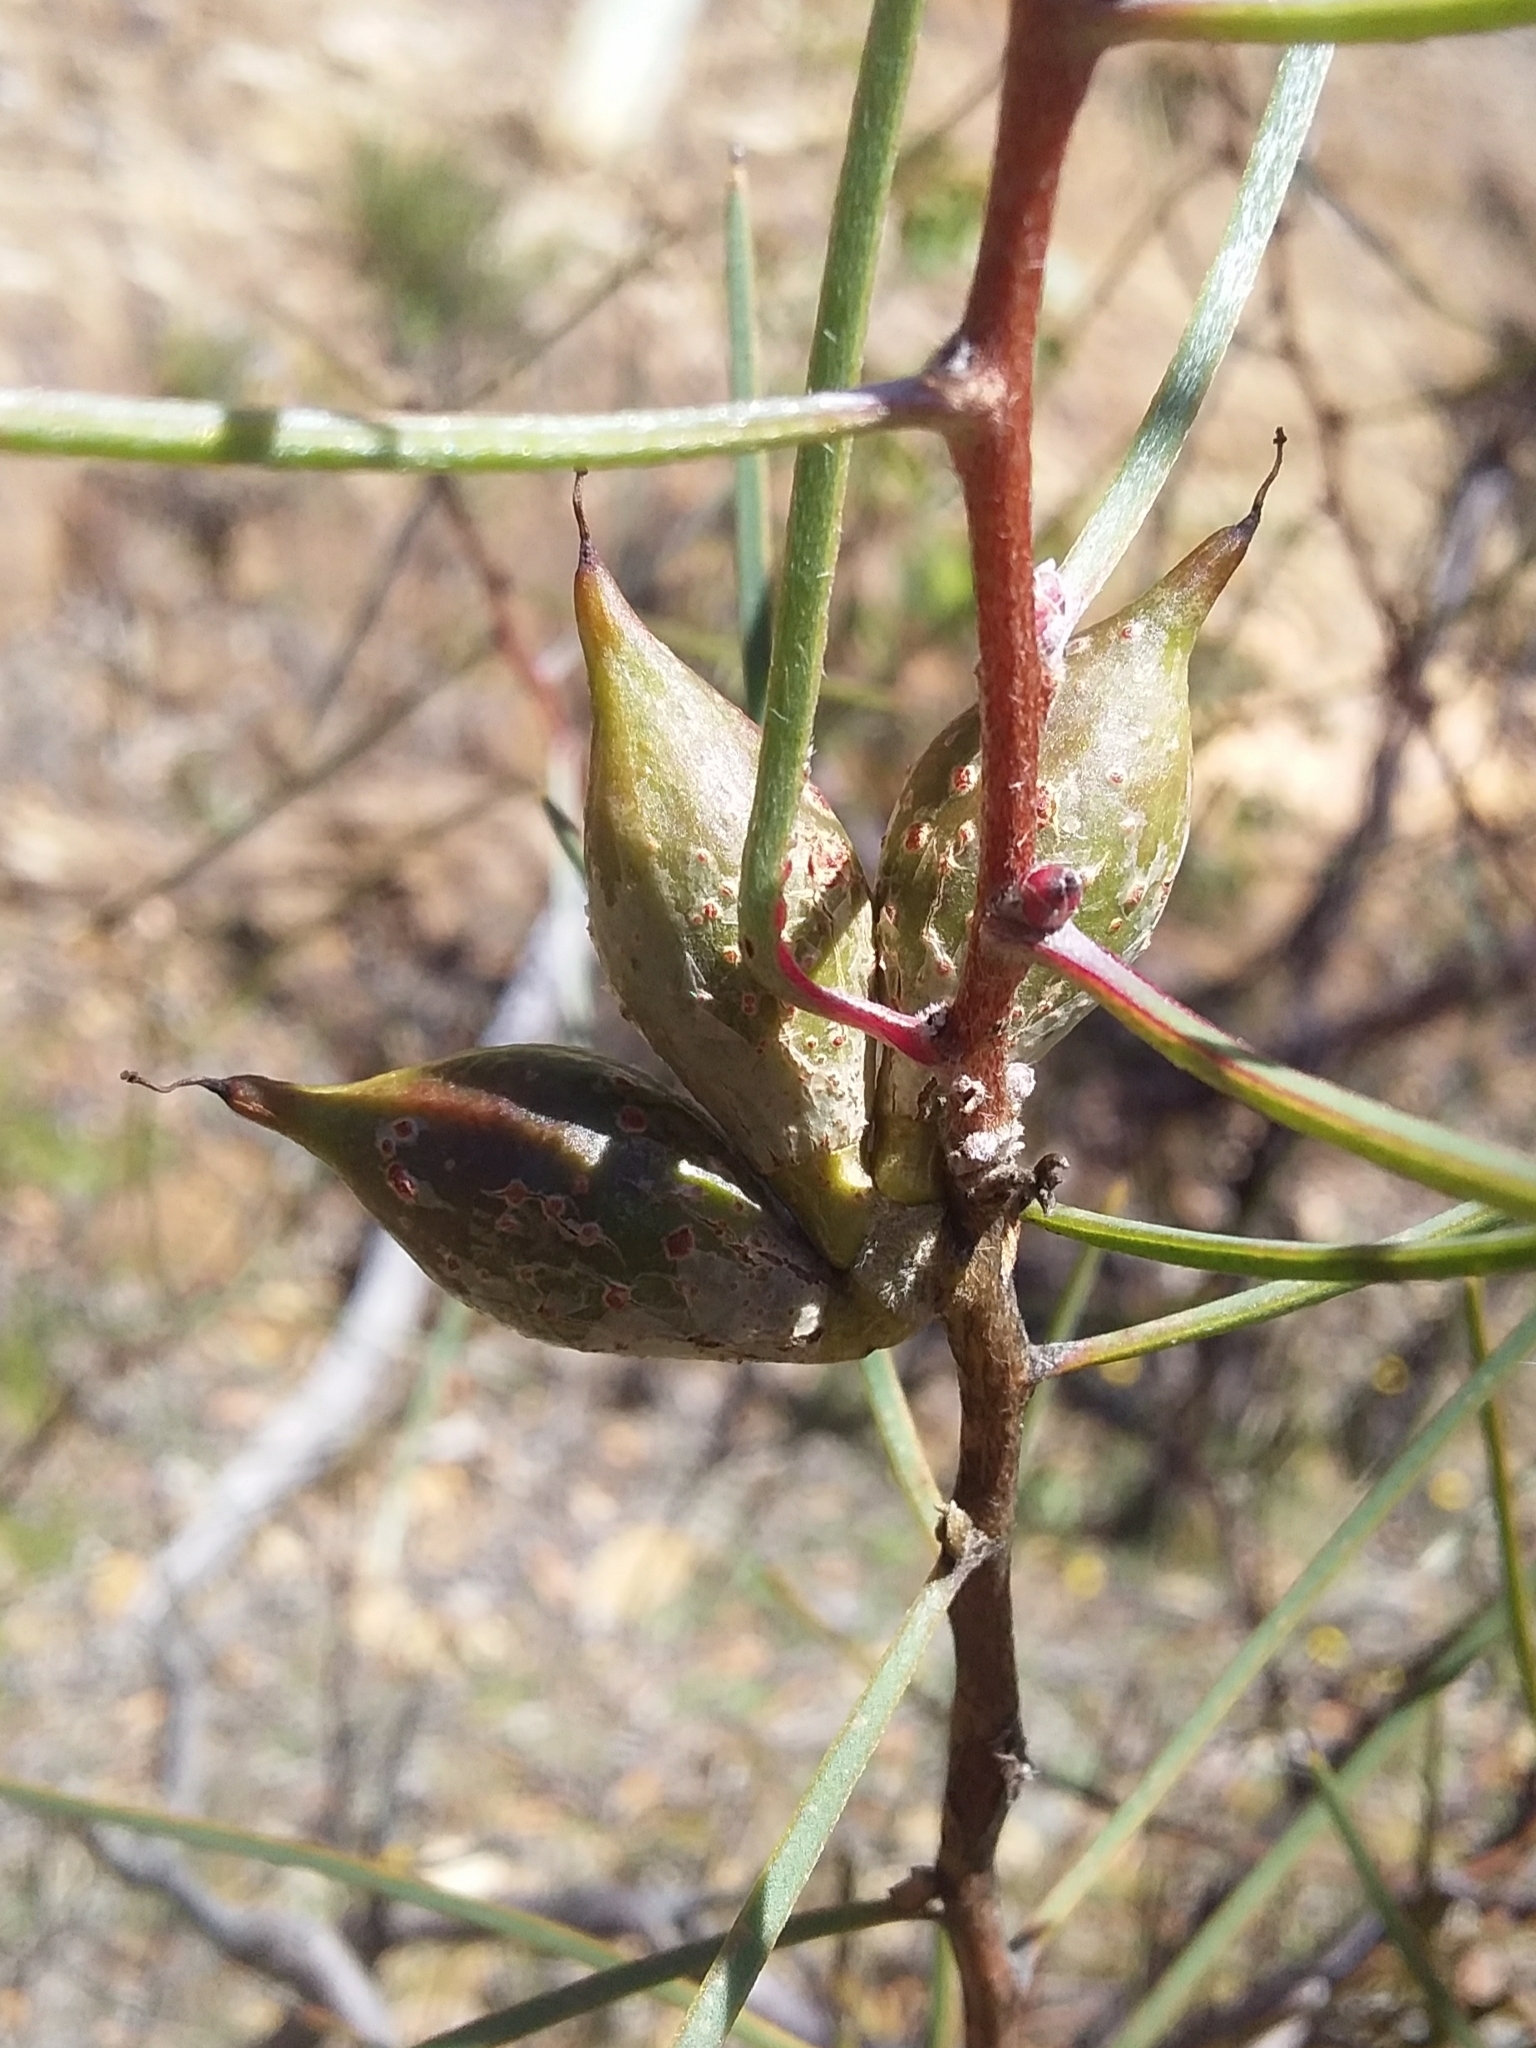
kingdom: Plantae
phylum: Tracheophyta
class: Magnoliopsida
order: Proteales
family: Proteaceae
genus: Hakea
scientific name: Hakea carinata
